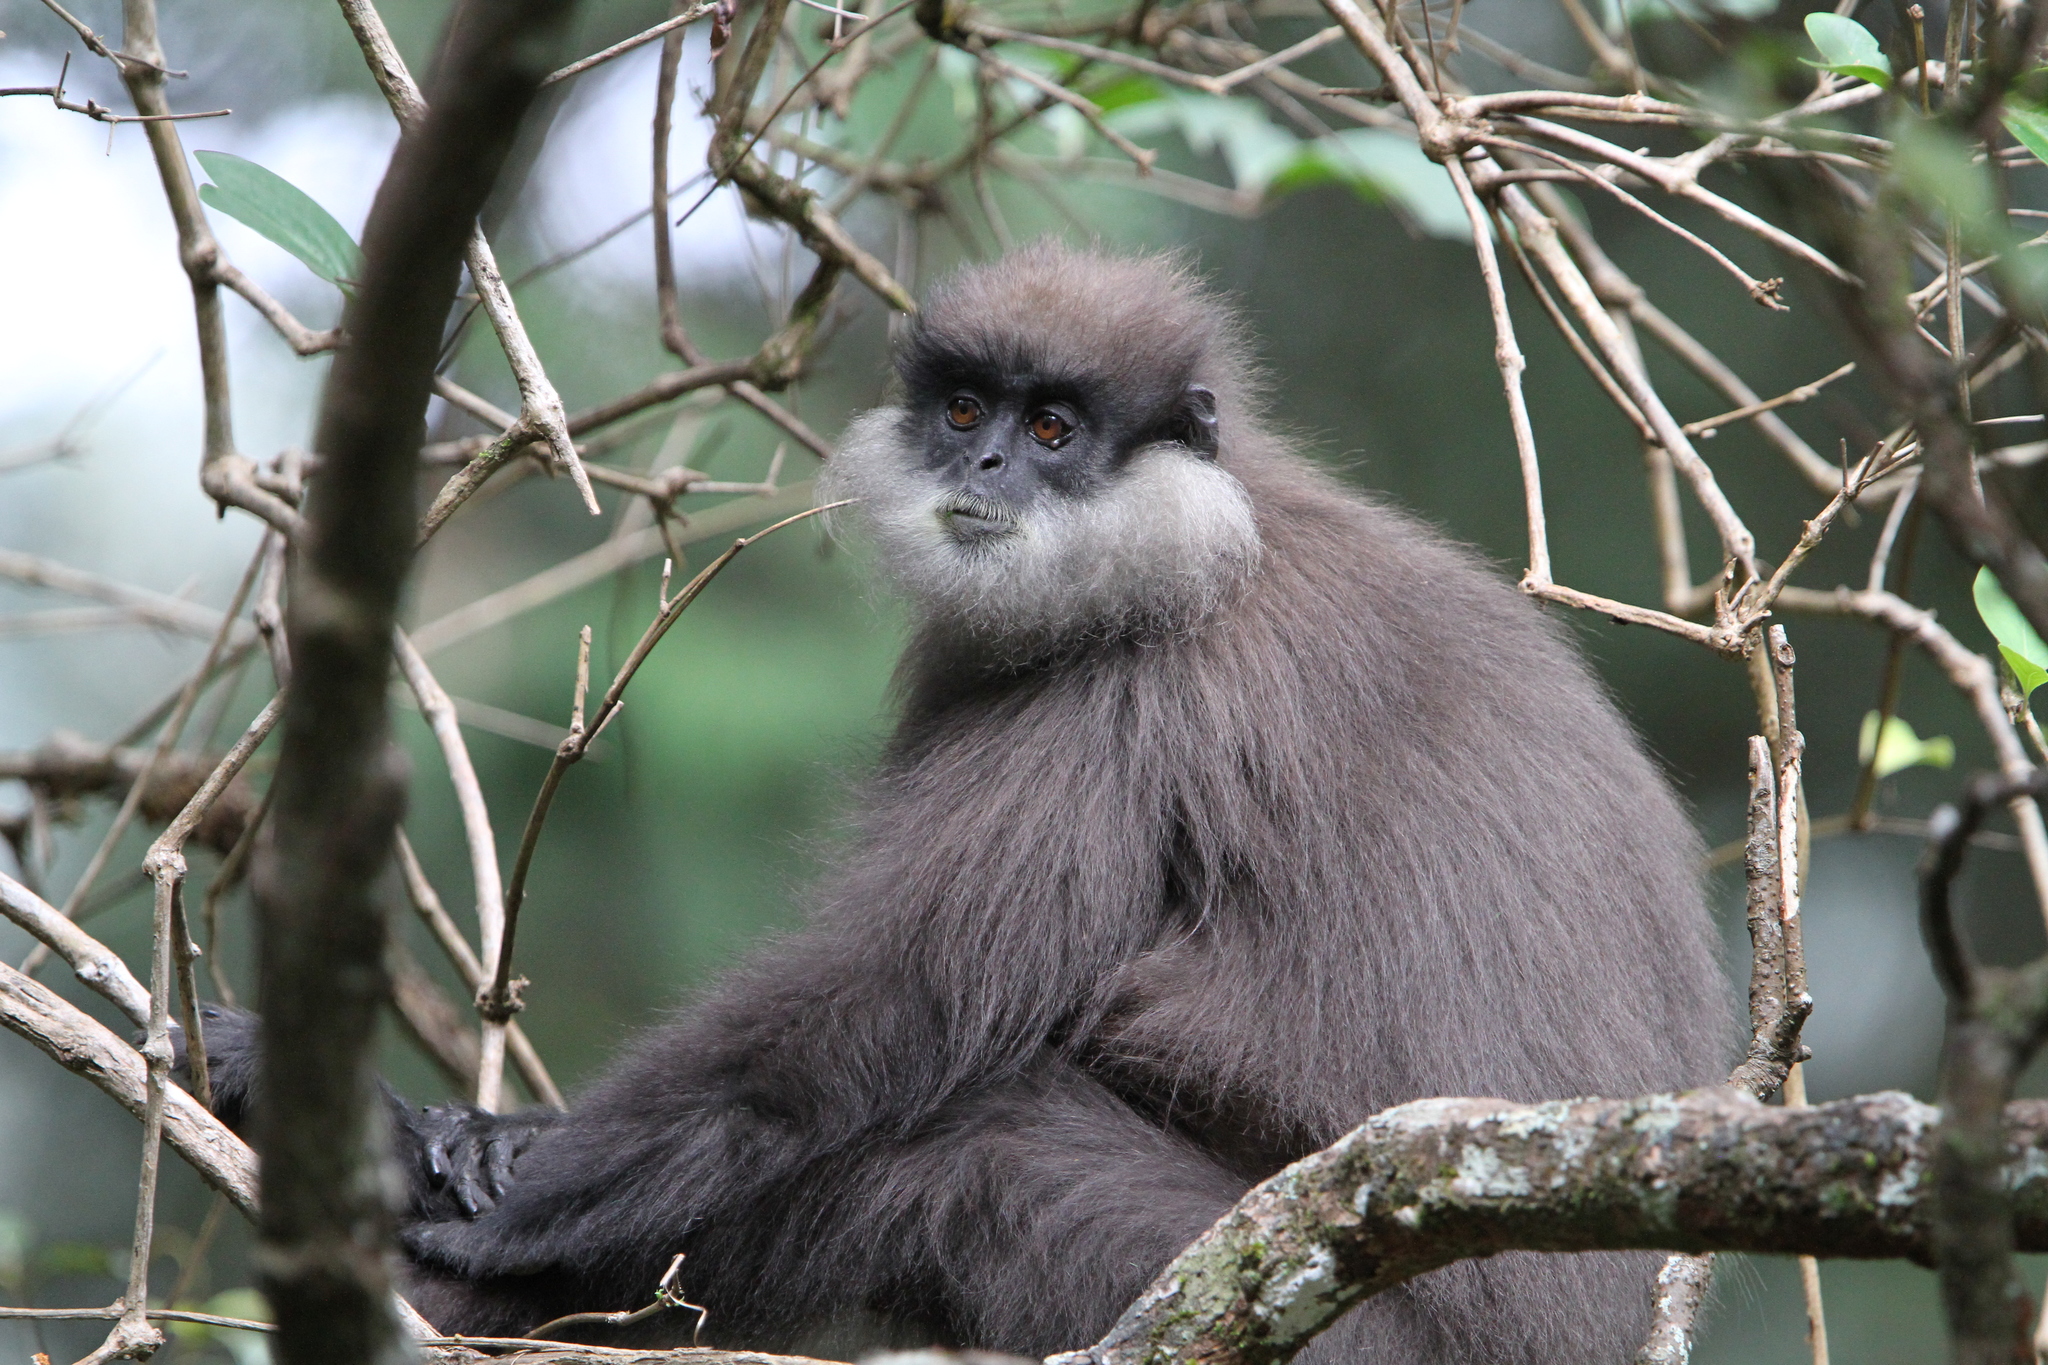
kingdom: Animalia
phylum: Chordata
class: Mammalia
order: Primates
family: Cercopithecidae
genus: Semnopithecus
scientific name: Semnopithecus vetulus
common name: Purple-faced langur
